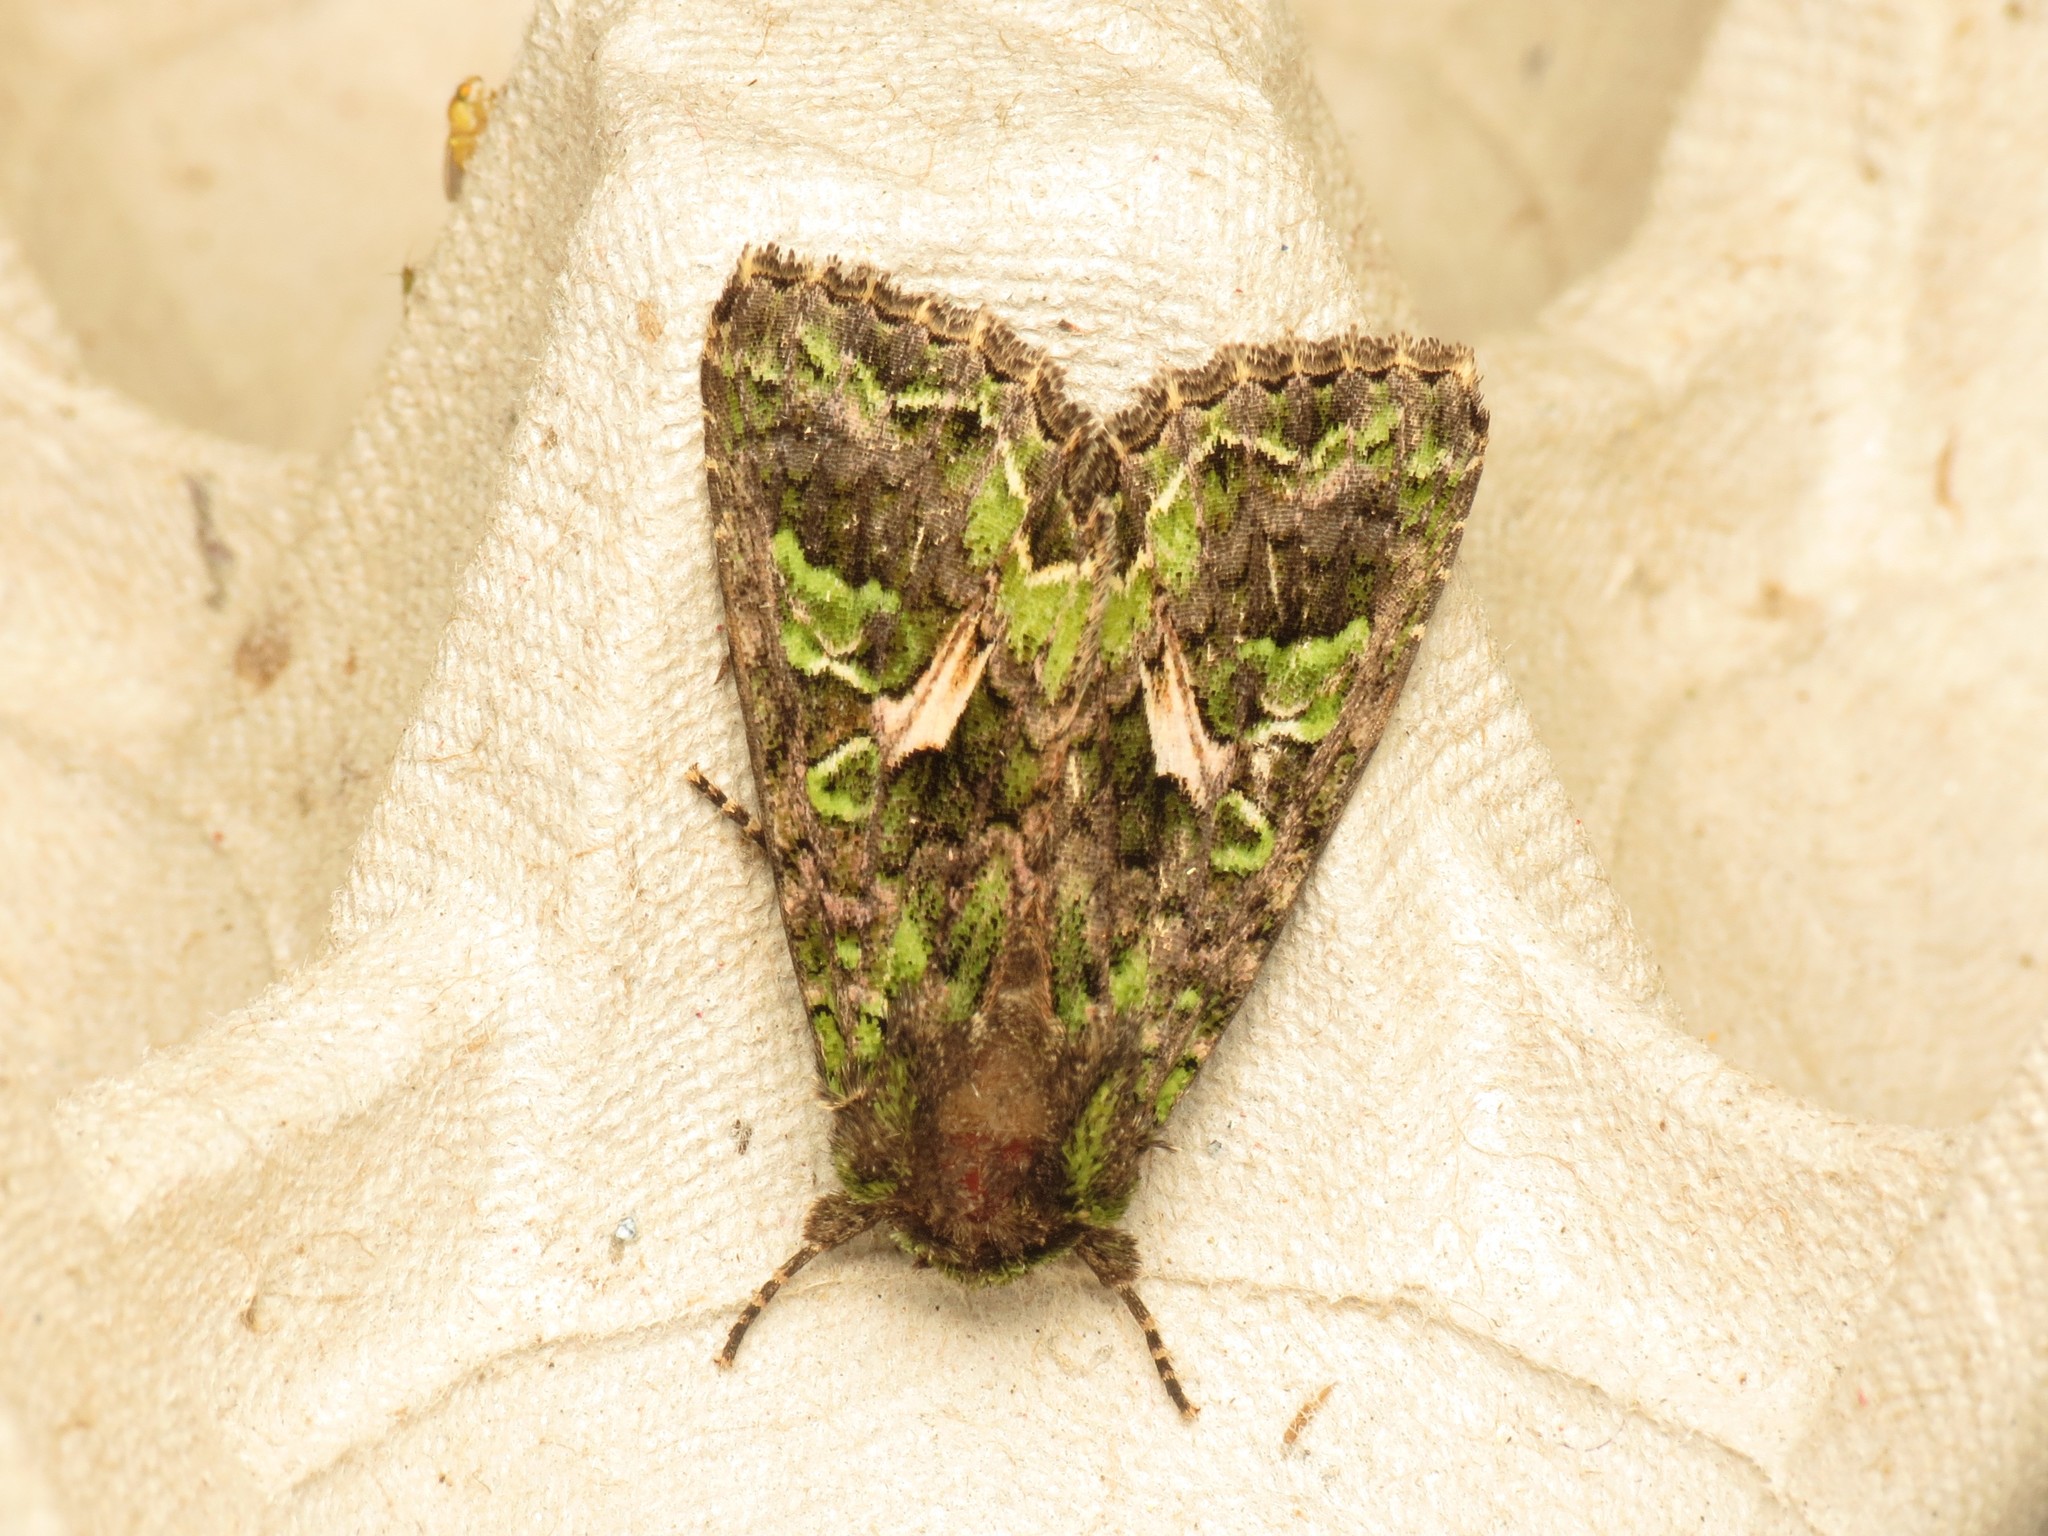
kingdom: Animalia
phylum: Arthropoda
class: Insecta
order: Lepidoptera
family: Noctuidae
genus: Trachea
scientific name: Trachea atriplicis
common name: Orache moth
